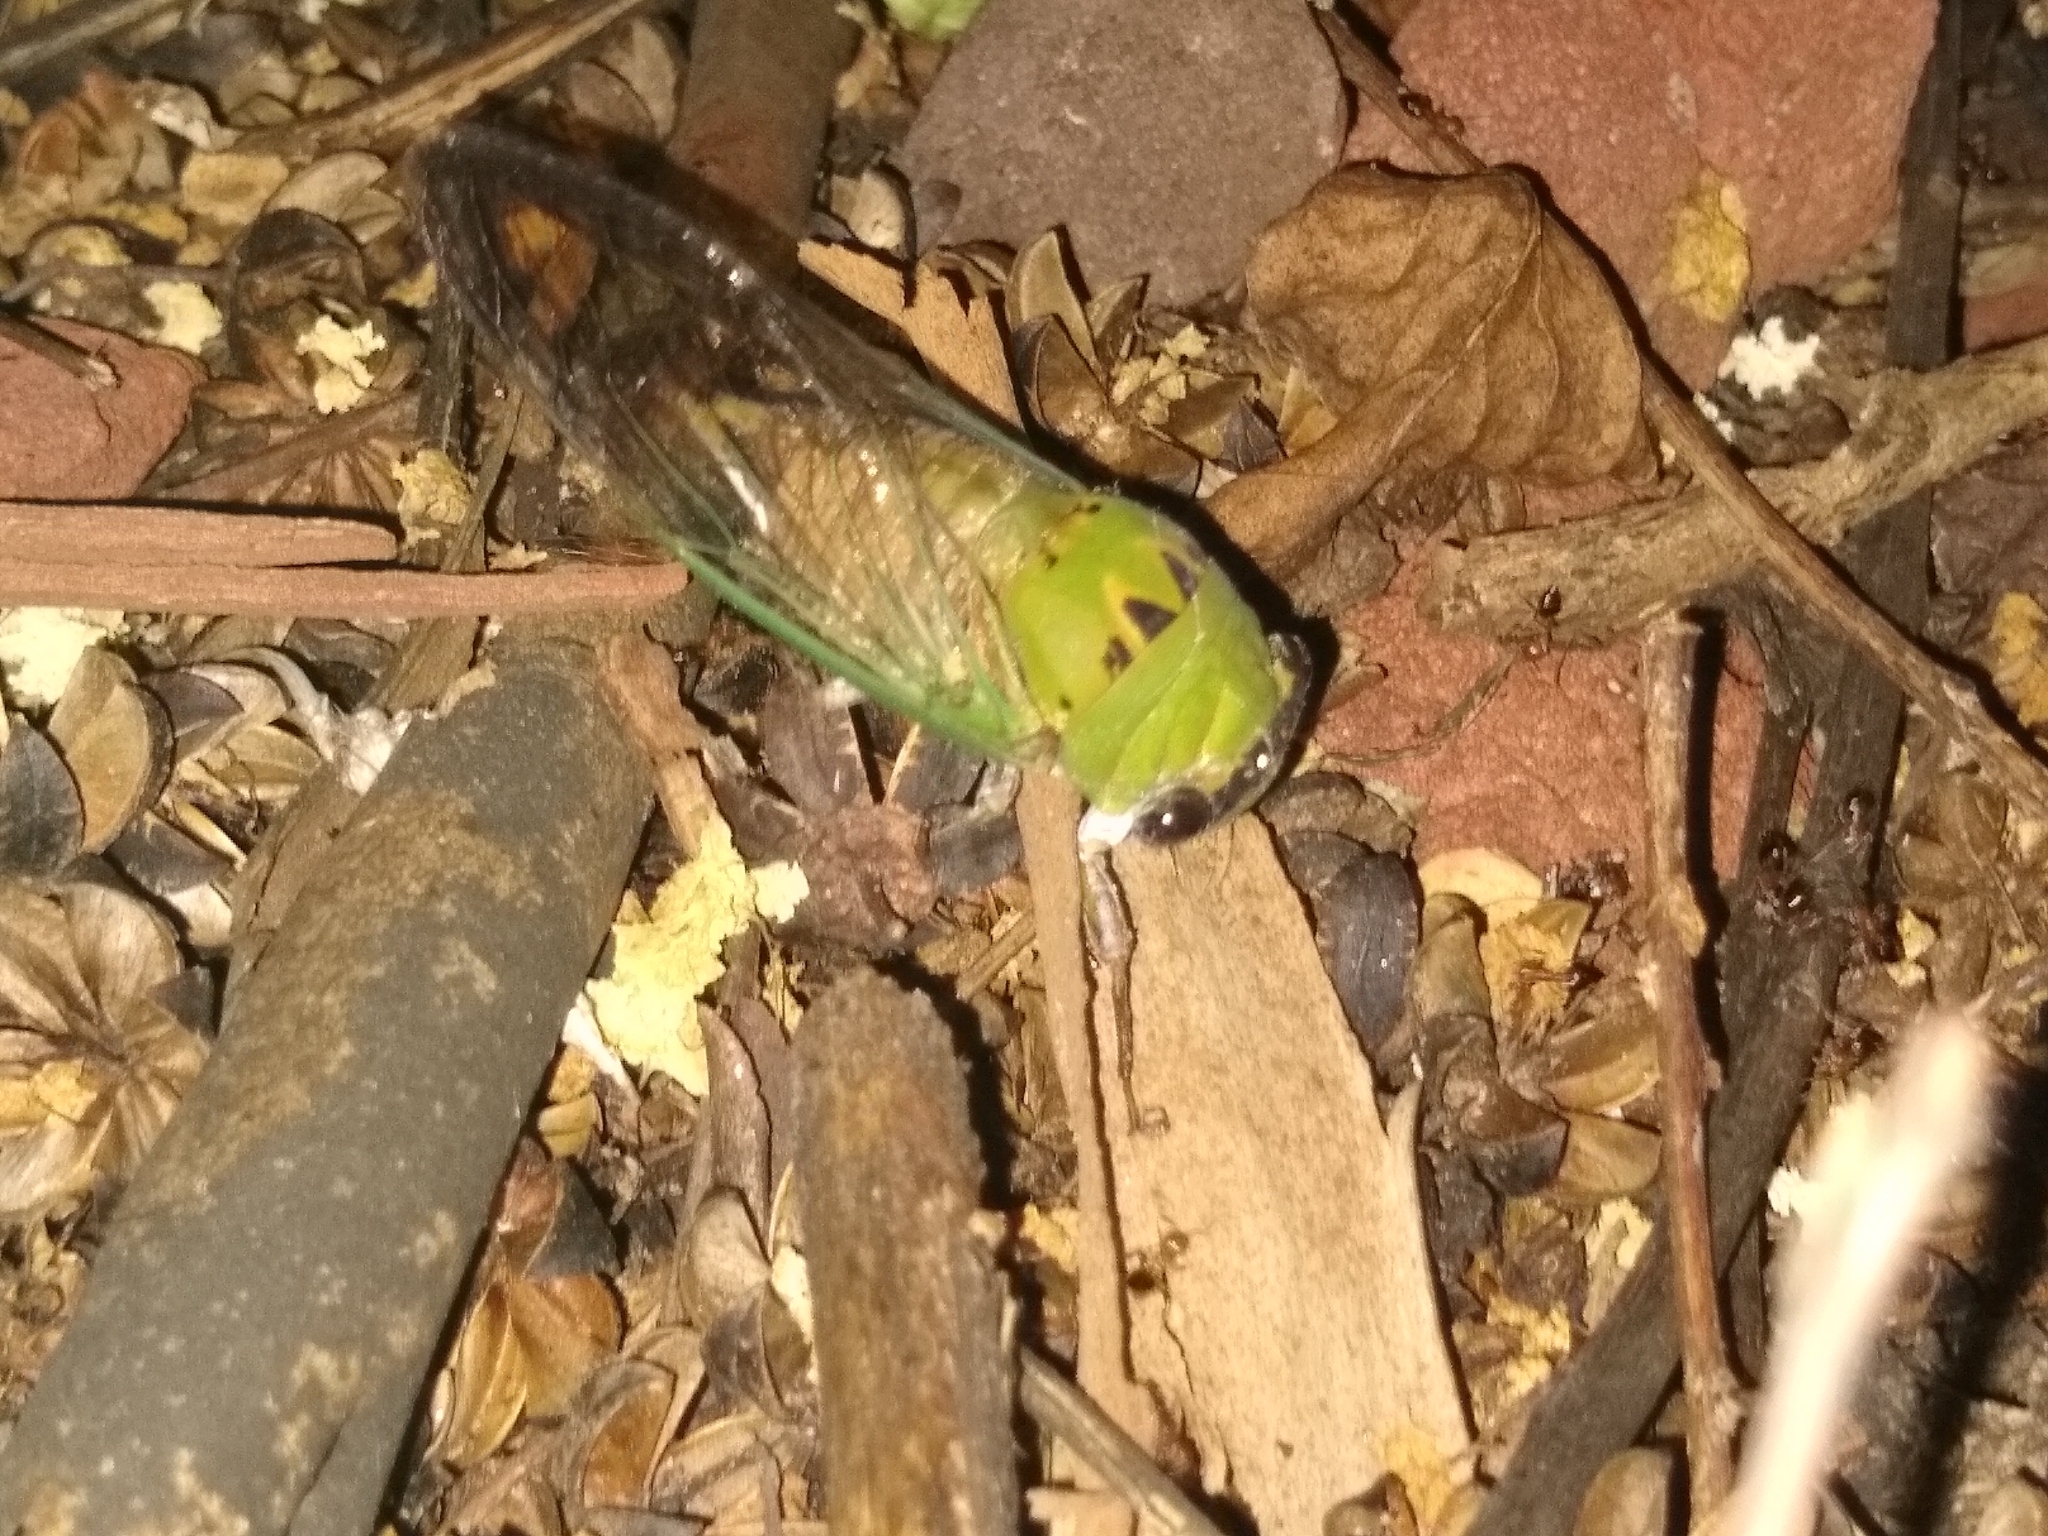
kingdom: Animalia
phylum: Arthropoda
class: Insecta
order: Hemiptera
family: Cicadidae
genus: Neotibicen
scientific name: Neotibicen superbus
